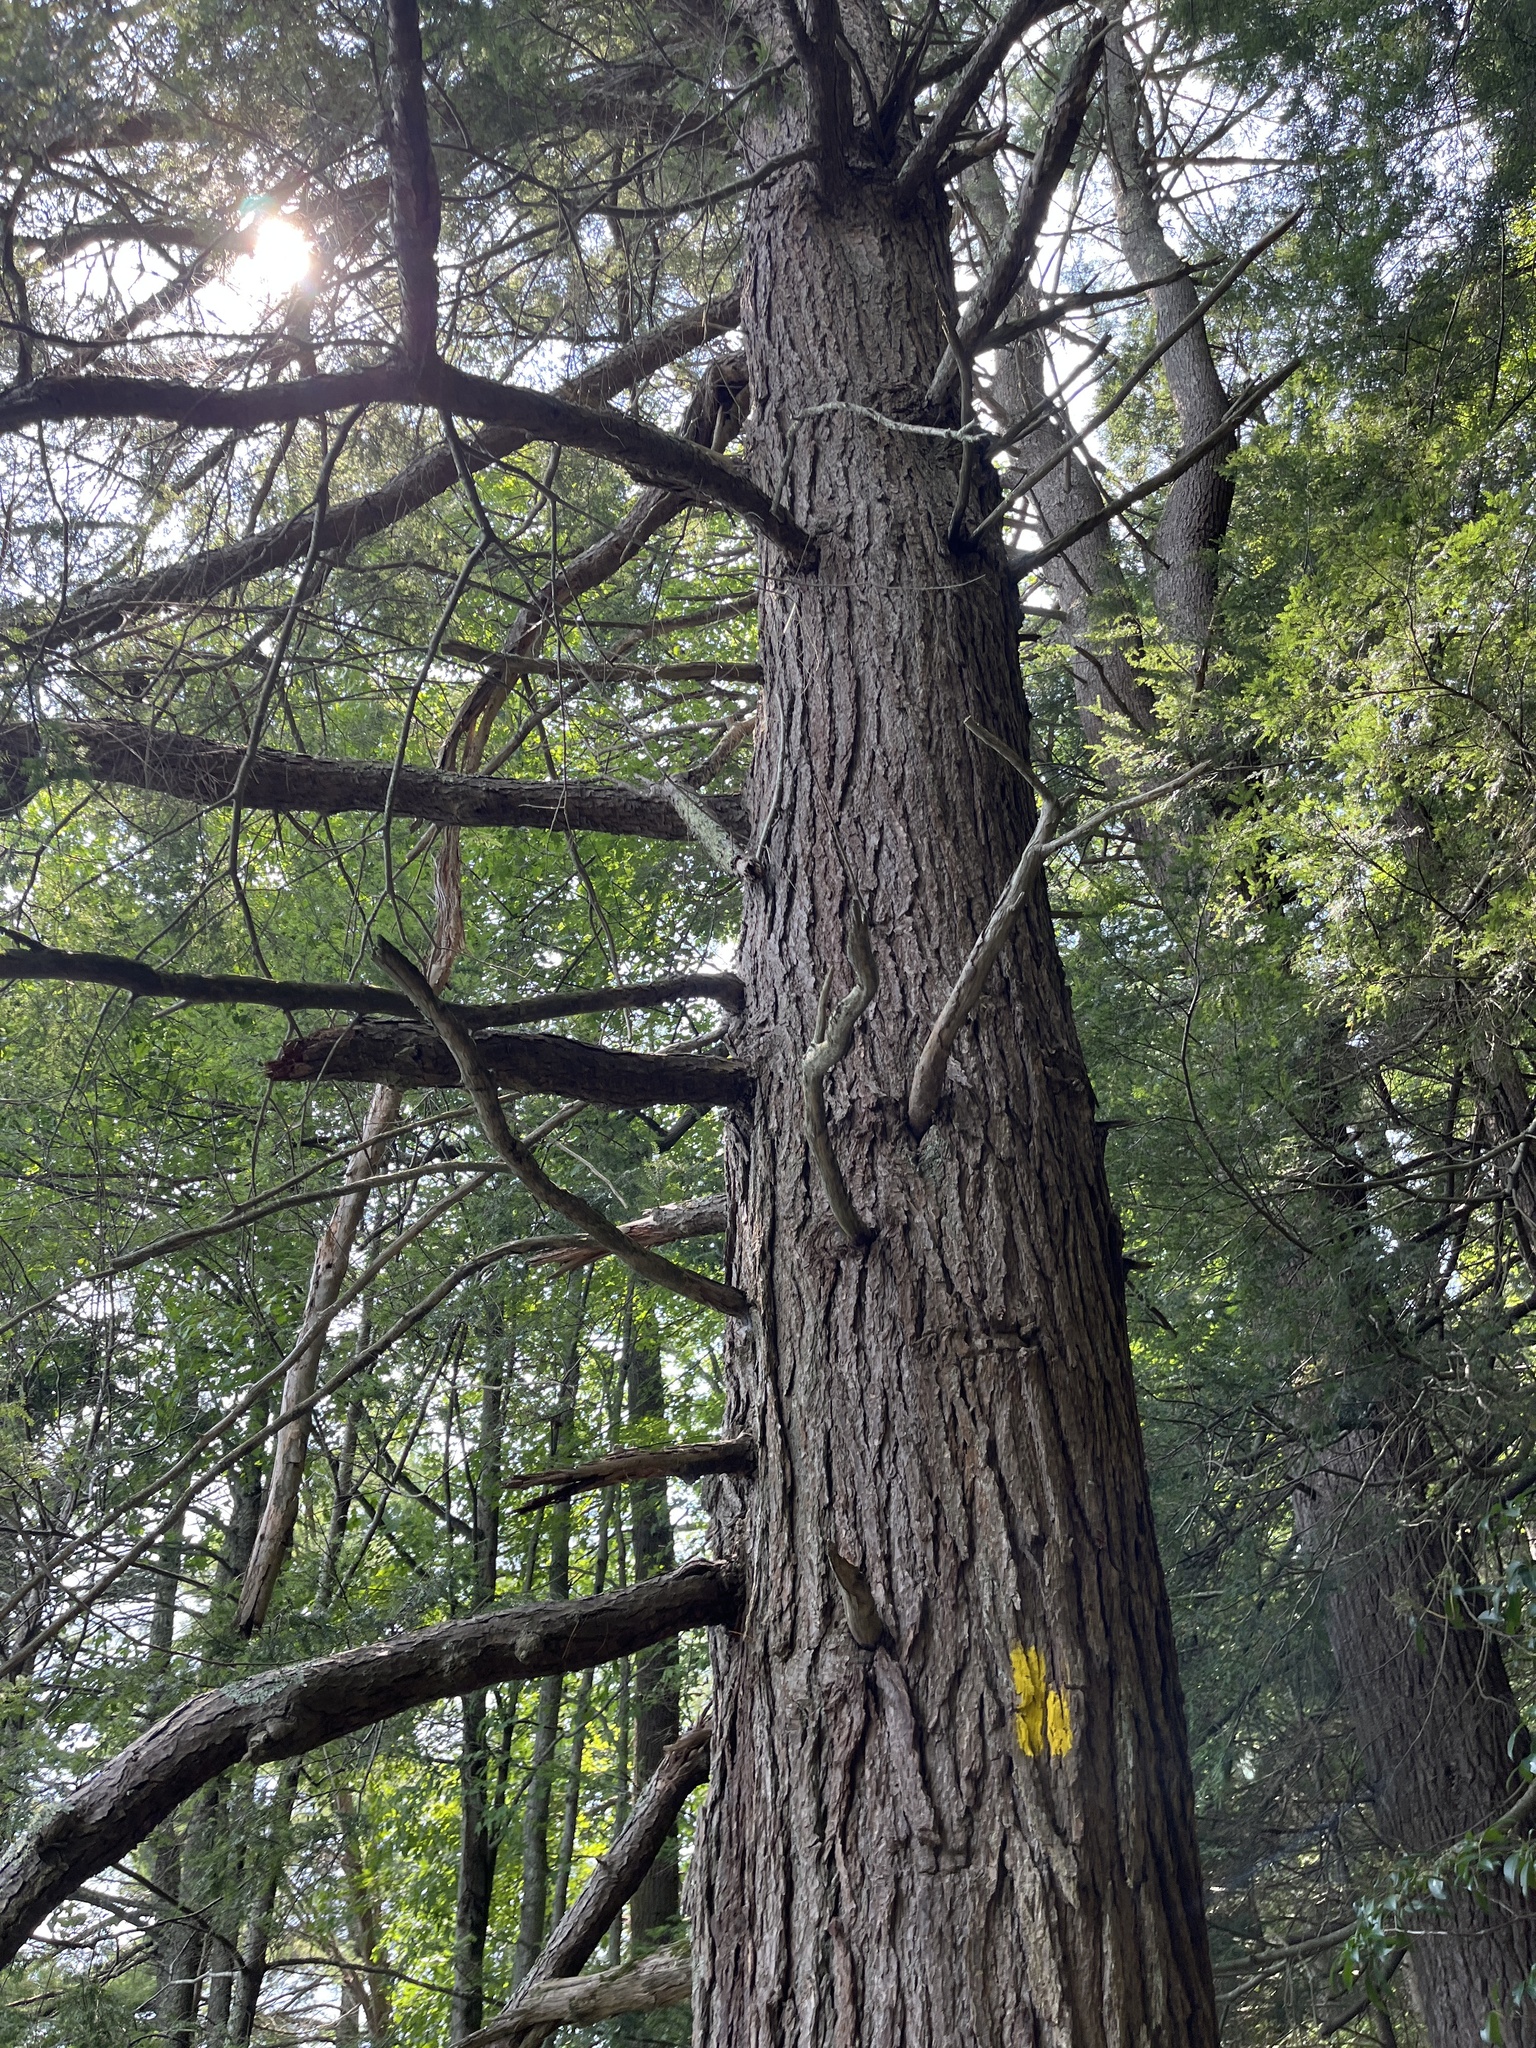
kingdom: Plantae
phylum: Tracheophyta
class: Pinopsida
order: Pinales
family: Pinaceae
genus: Tsuga
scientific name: Tsuga canadensis
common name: Eastern hemlock
